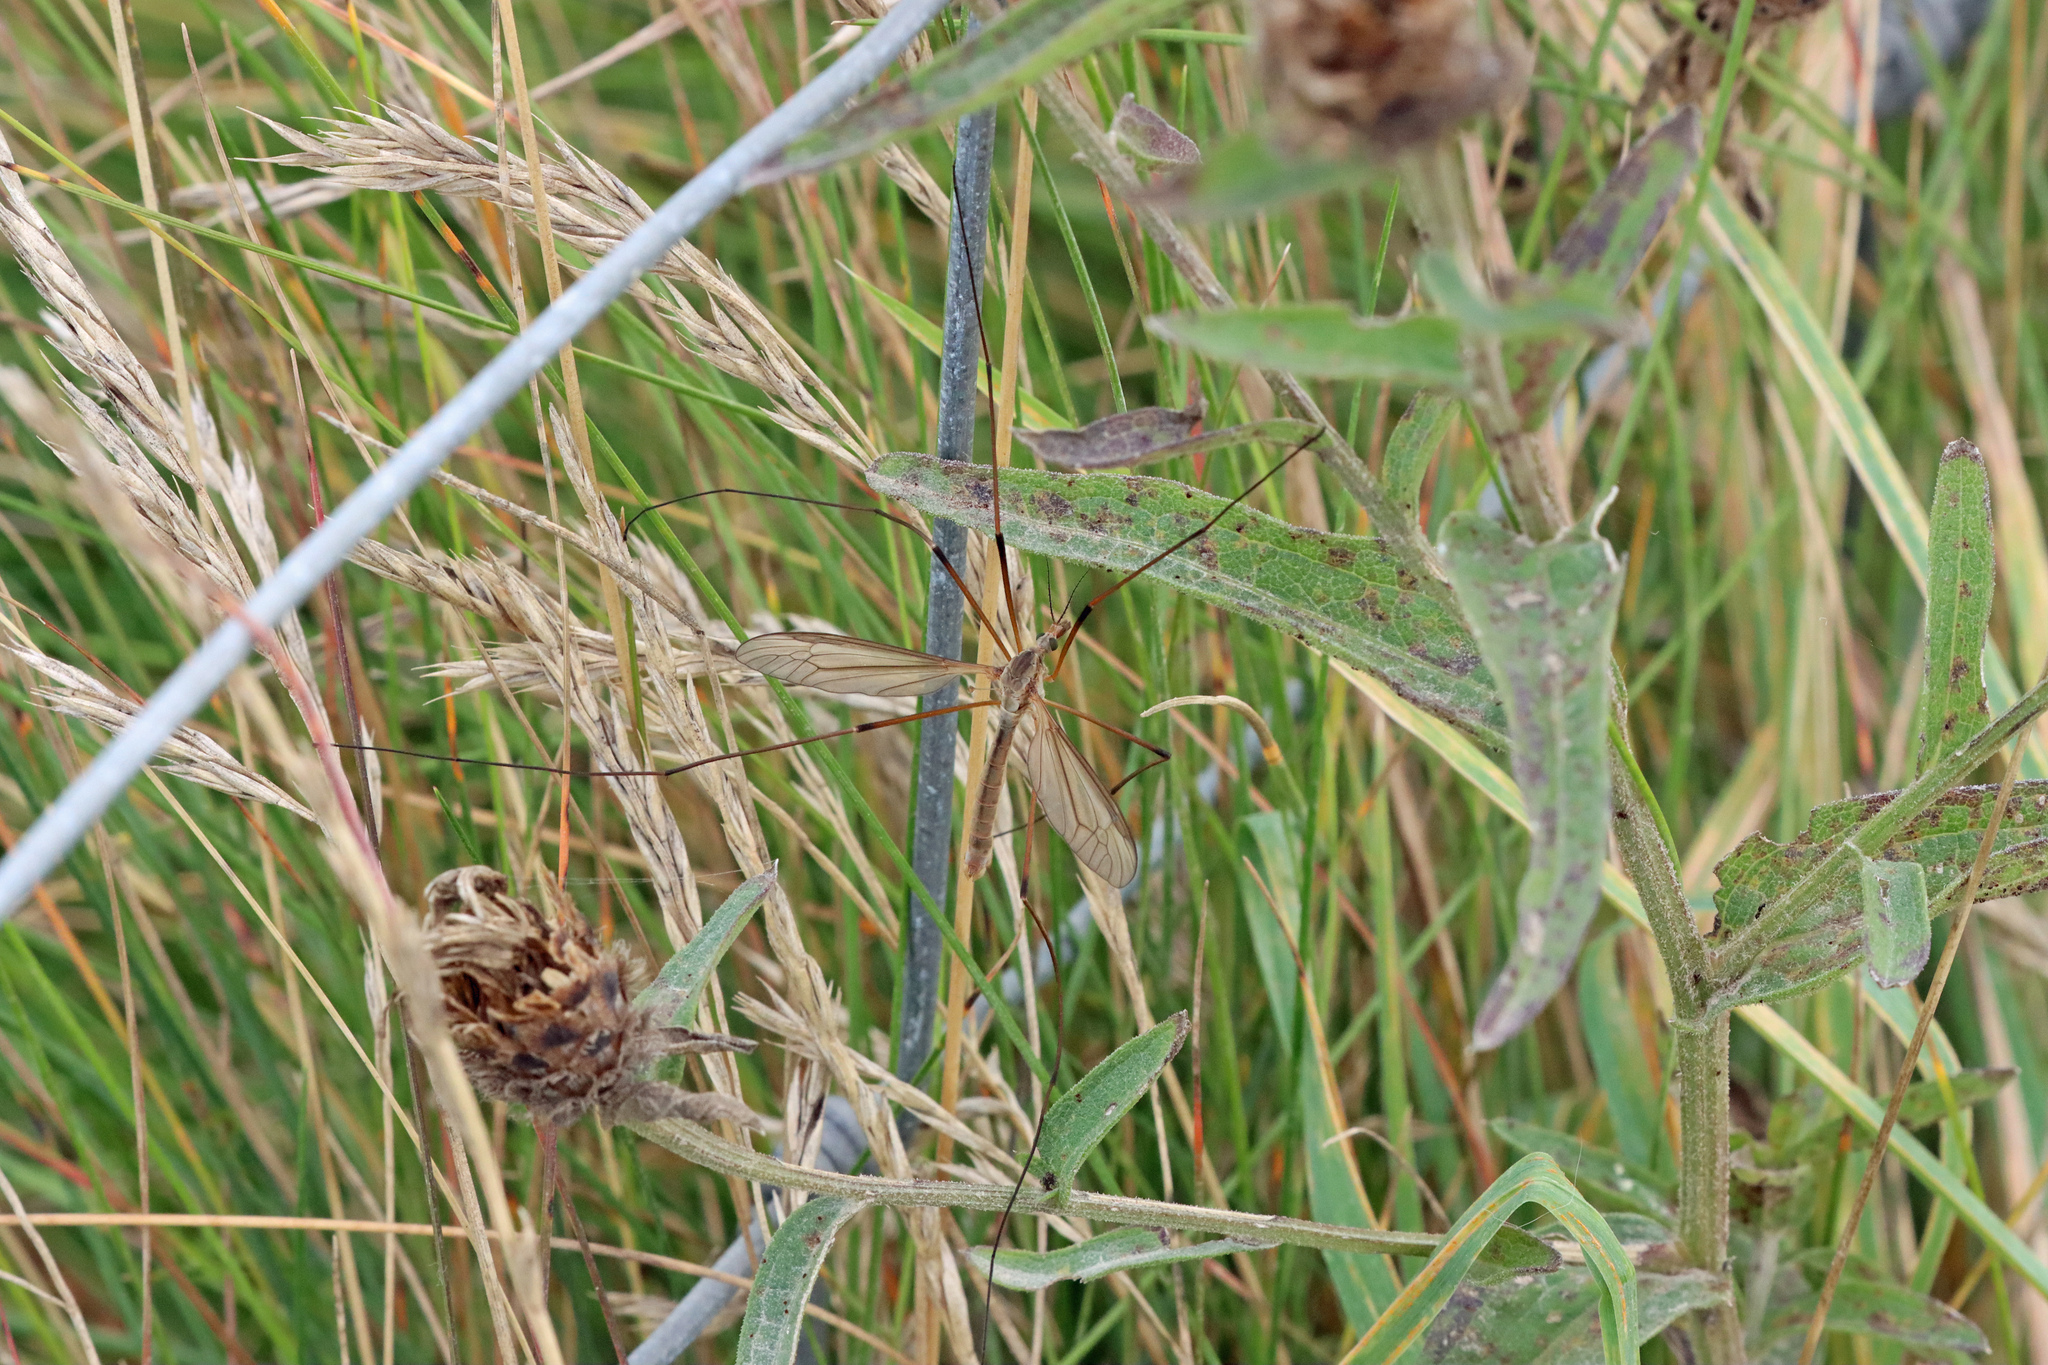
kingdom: Animalia
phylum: Arthropoda
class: Insecta
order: Diptera
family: Tipulidae
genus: Tipula
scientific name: Tipula paludosa
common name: European cranefly
